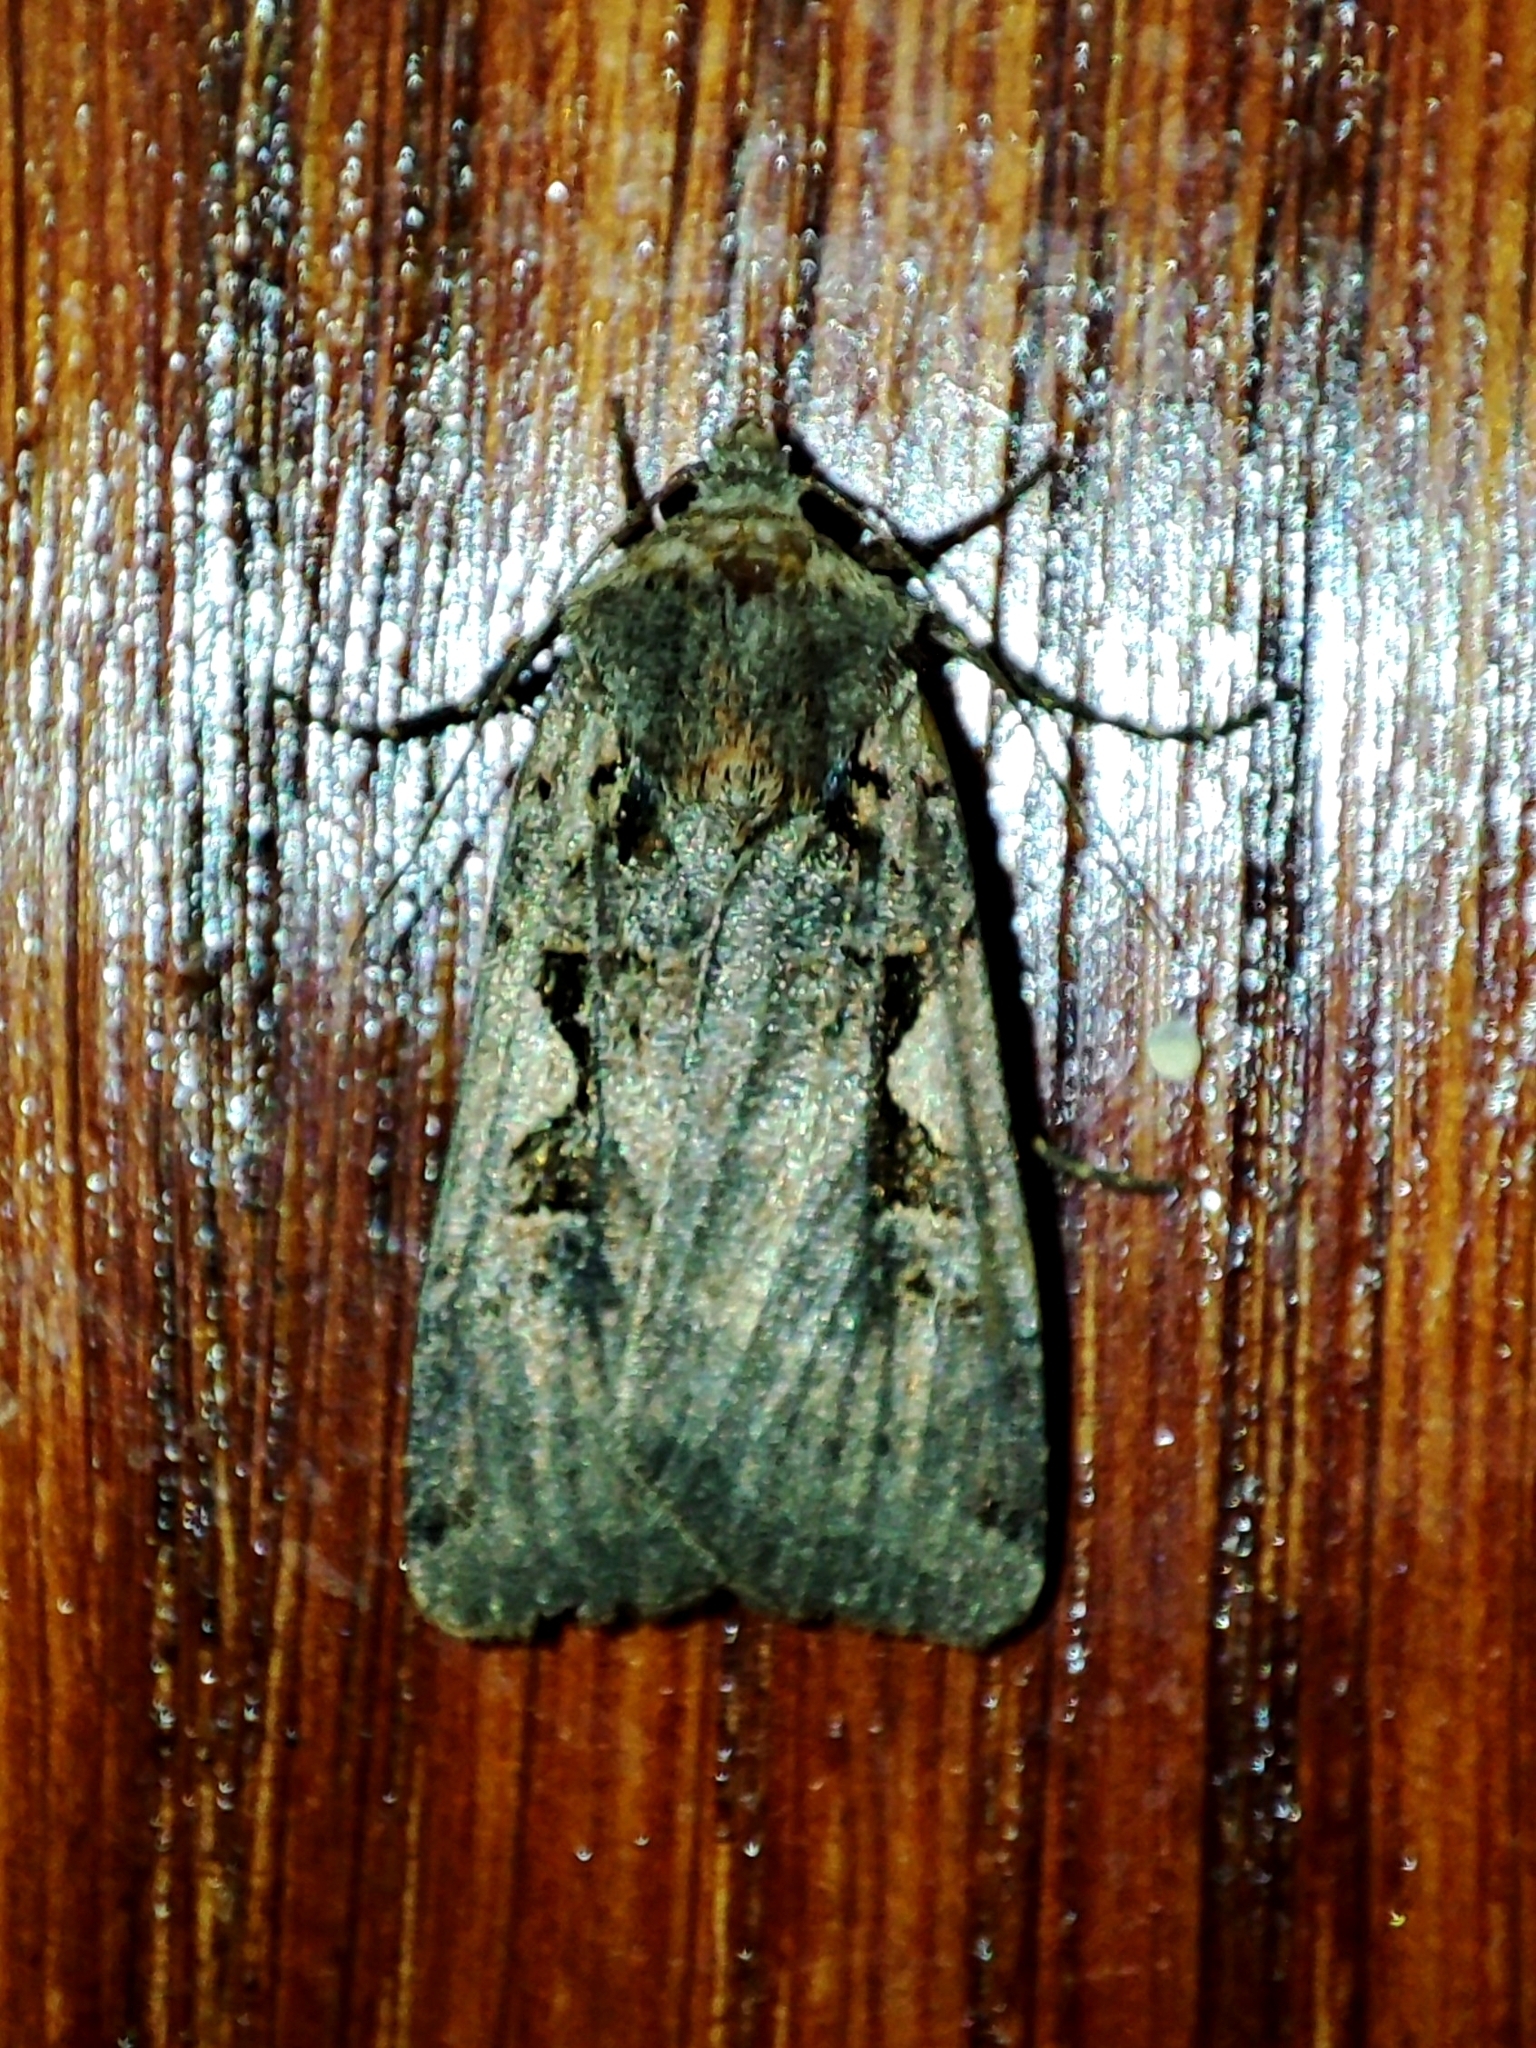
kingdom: Animalia
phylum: Arthropoda
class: Insecta
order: Lepidoptera
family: Noctuidae
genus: Xestia
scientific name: Xestia c-nigrum
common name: Setaceous hebrew character
